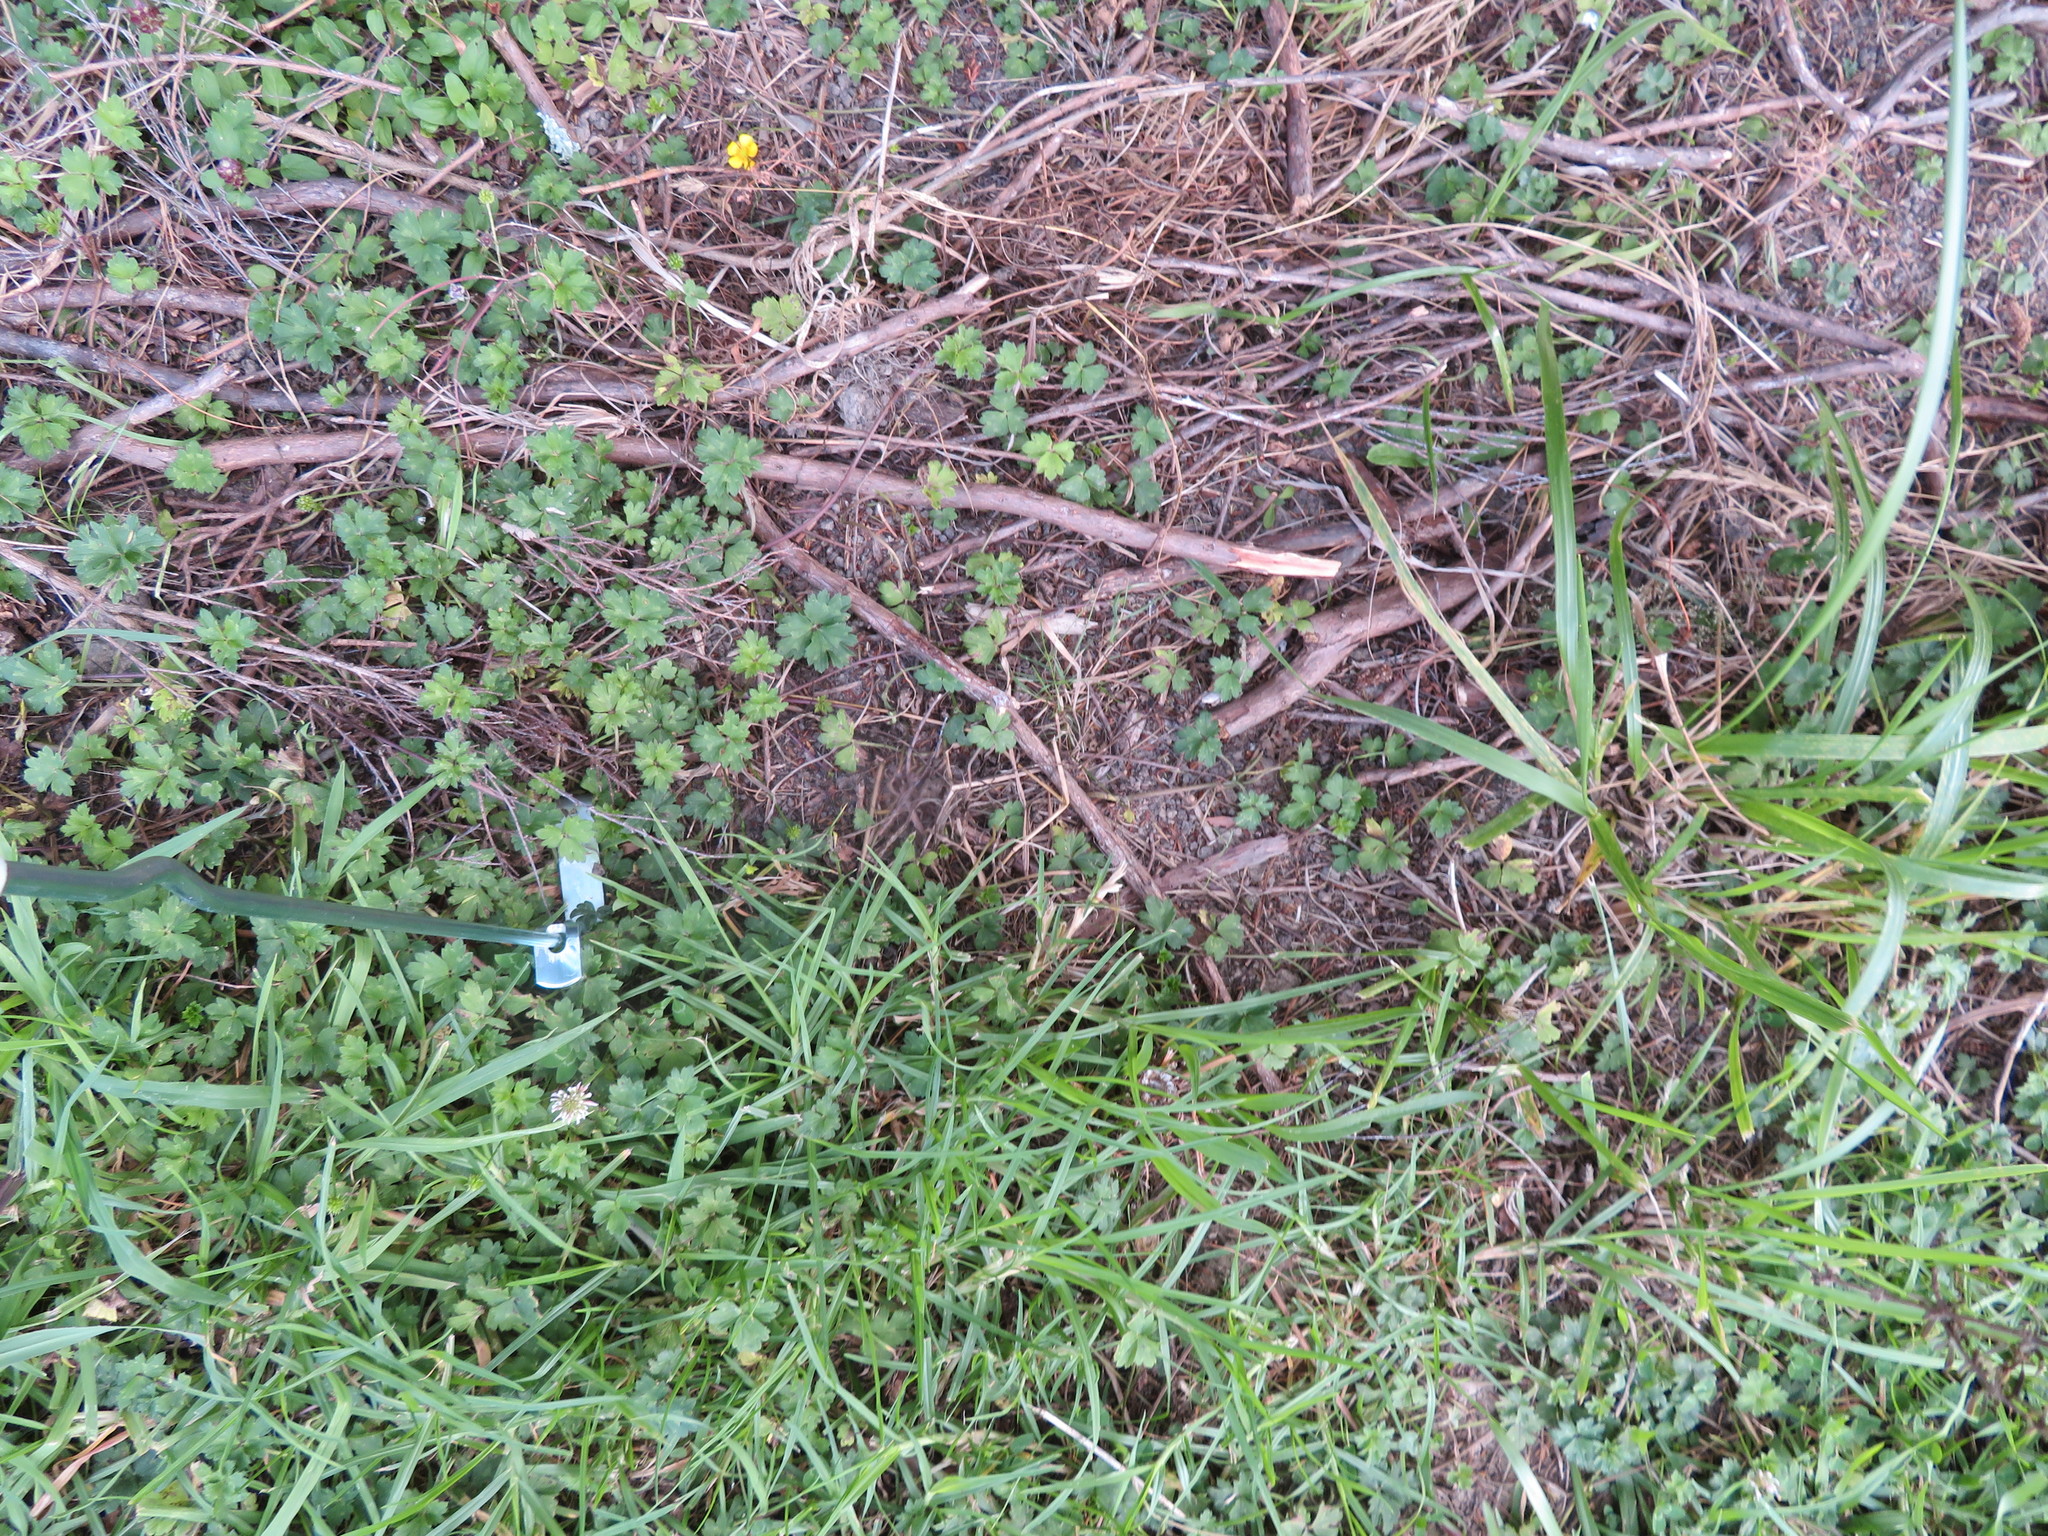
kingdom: Plantae
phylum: Tracheophyta
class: Liliopsida
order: Poales
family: Poaceae
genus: Cenchrus
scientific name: Cenchrus clandestinus
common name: Kikuyugrass
